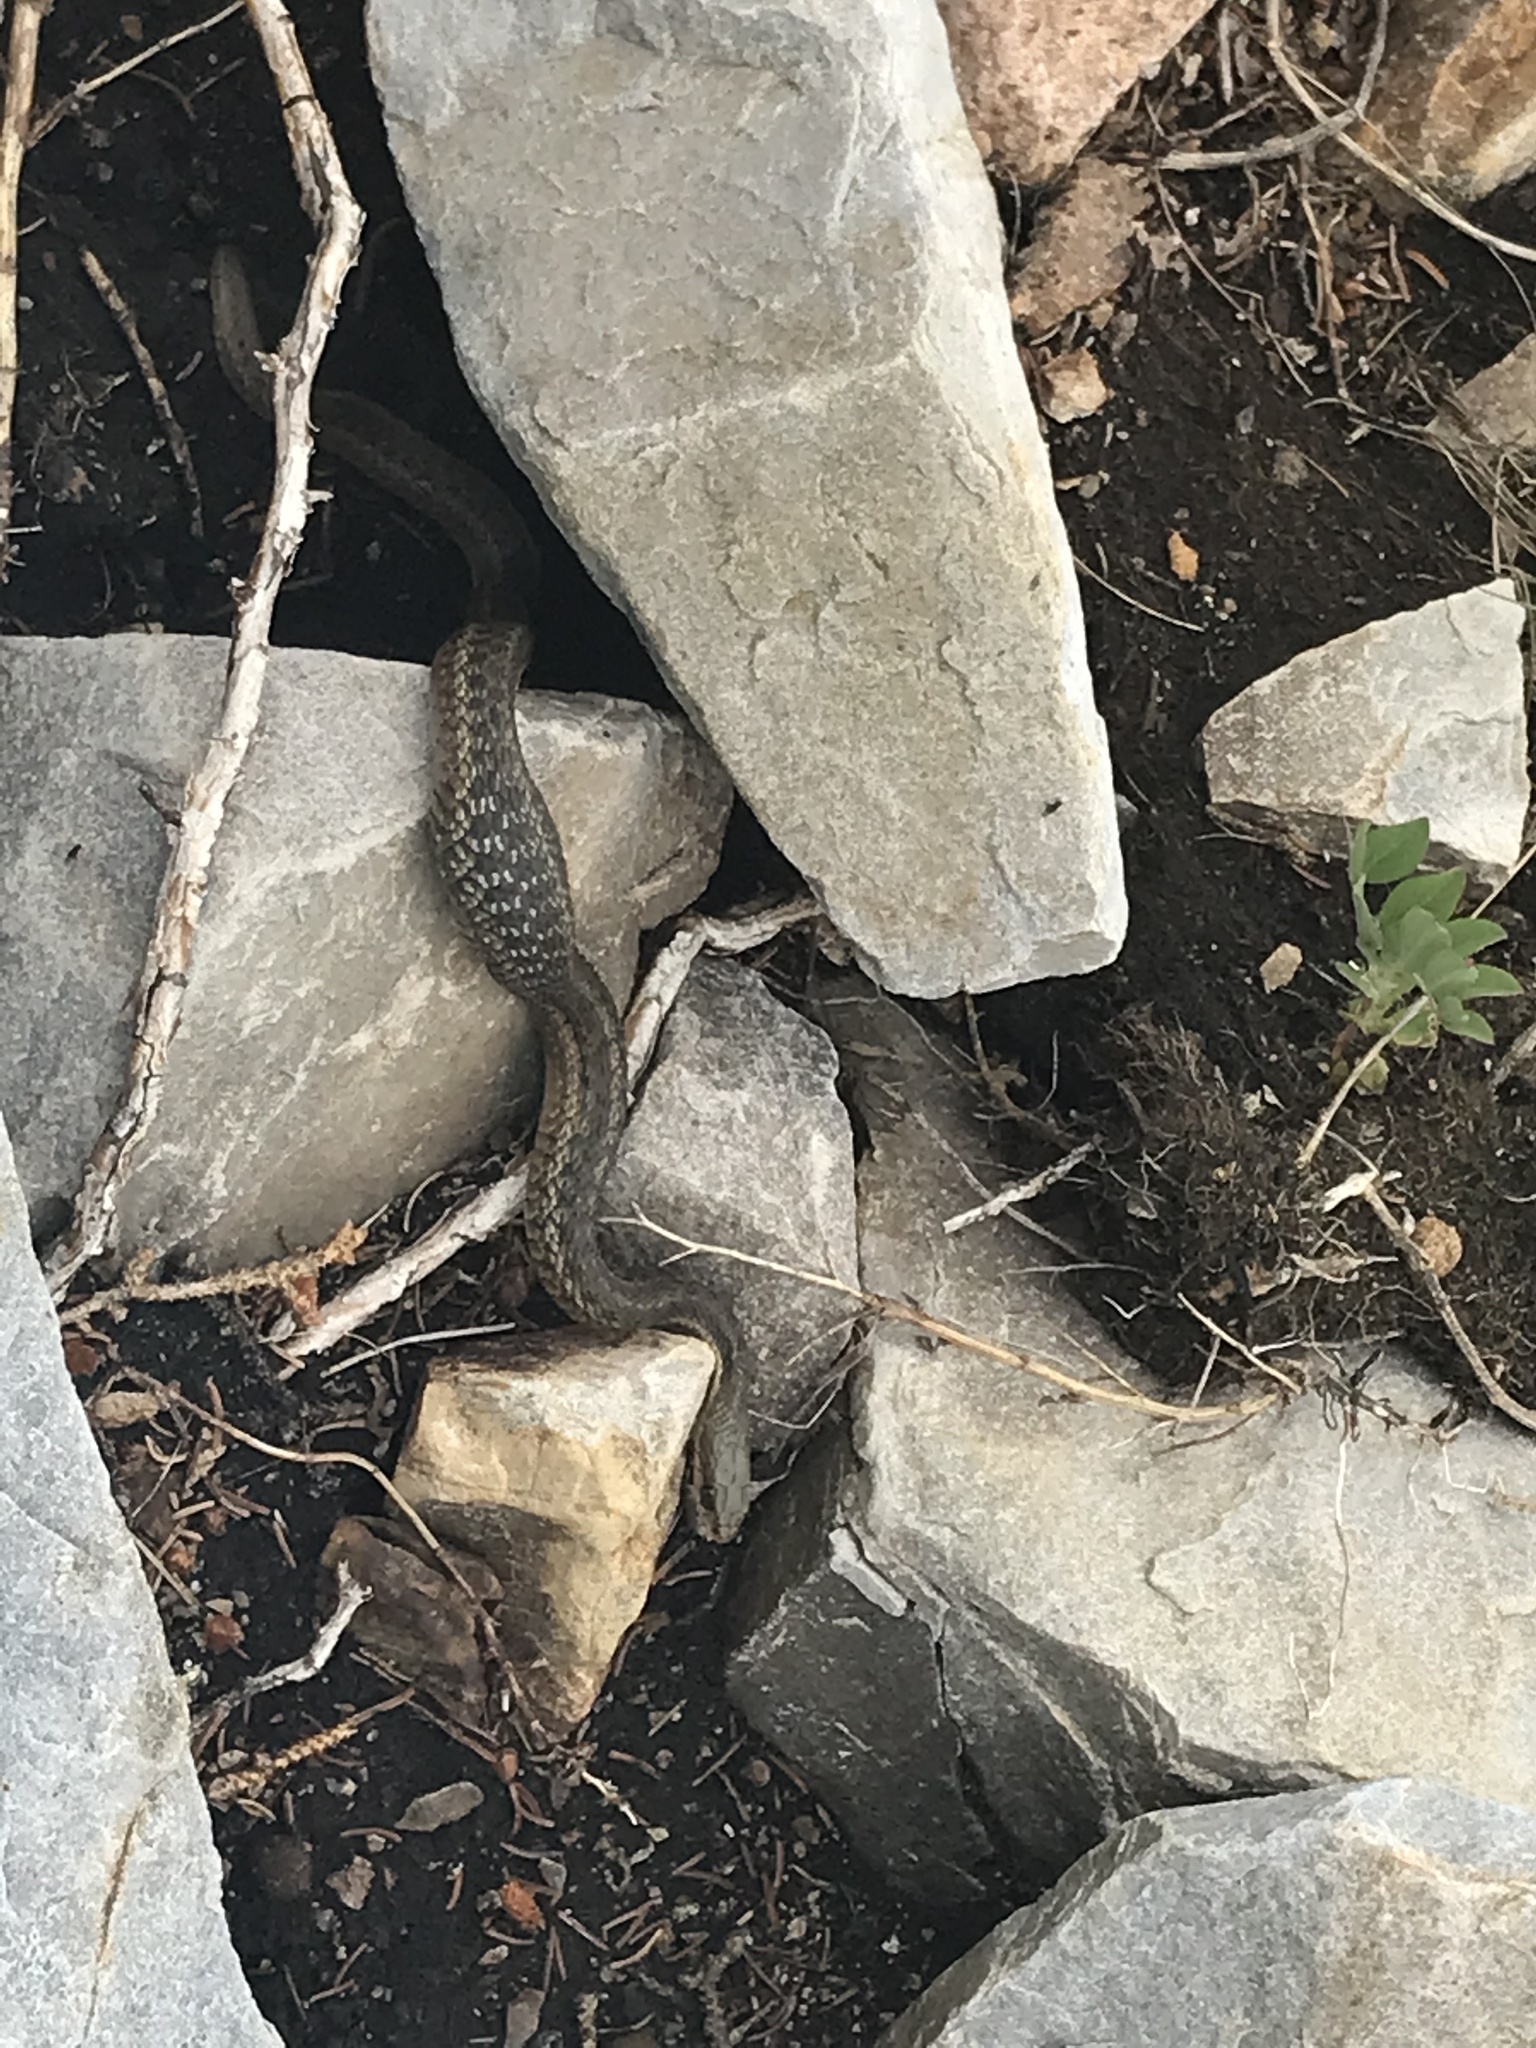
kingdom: Animalia
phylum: Chordata
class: Squamata
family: Colubridae
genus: Thamnophis
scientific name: Thamnophis sirtalis
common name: Common garter snake
